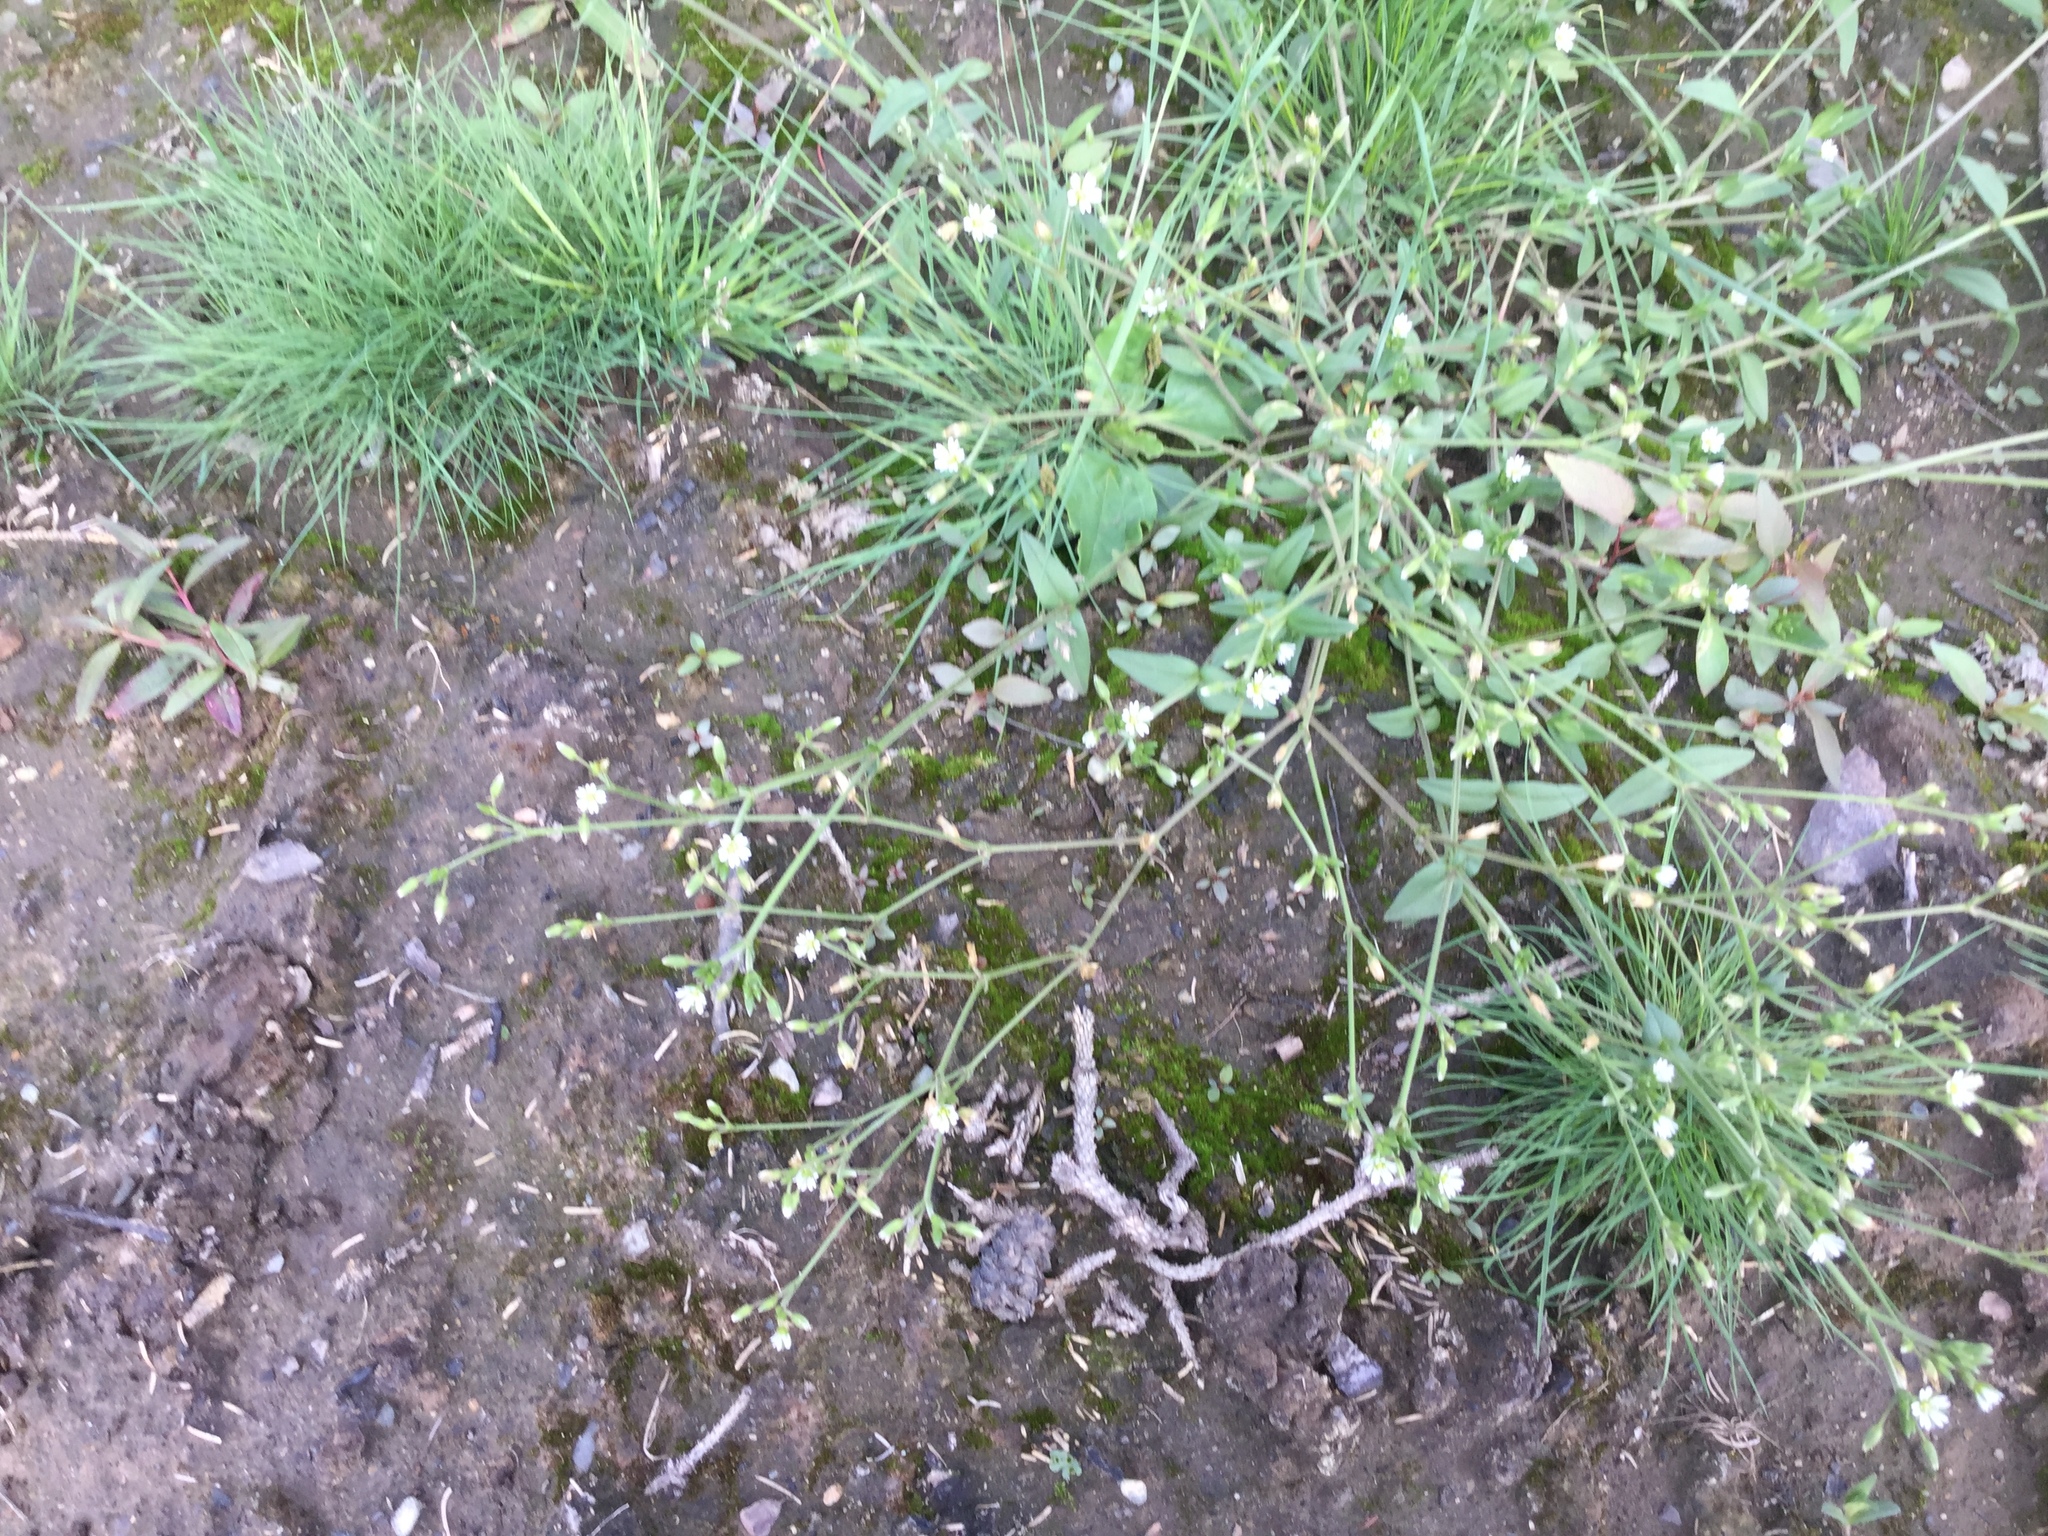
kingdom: Plantae
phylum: Tracheophyta
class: Magnoliopsida
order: Caryophyllales
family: Caryophyllaceae
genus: Cerastium
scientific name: Cerastium holosteoides
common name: Big chickweed
